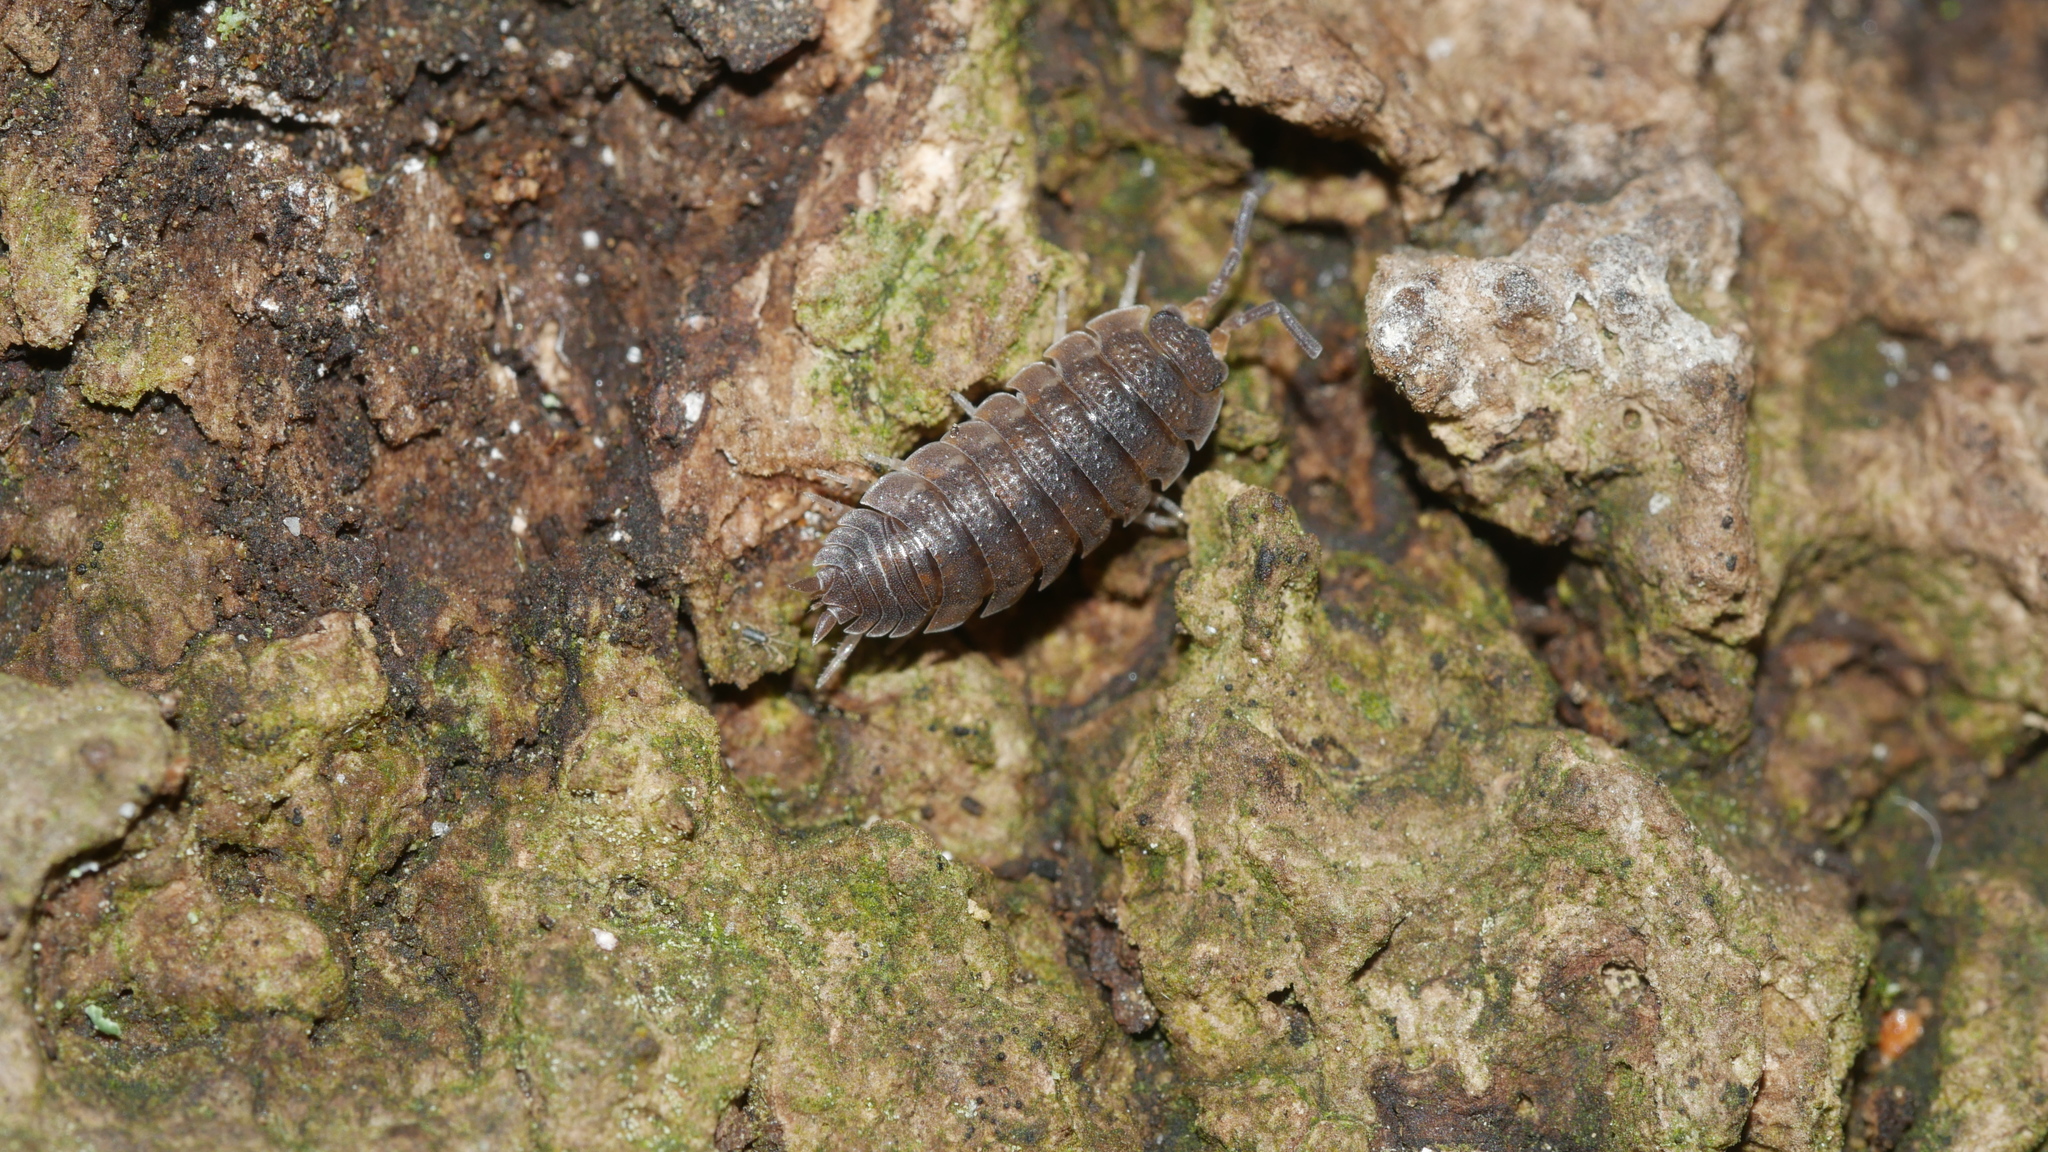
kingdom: Animalia
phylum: Arthropoda
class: Malacostraca
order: Isopoda
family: Porcellionidae
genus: Porcellio
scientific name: Porcellio scaber
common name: Common rough woodlouse
